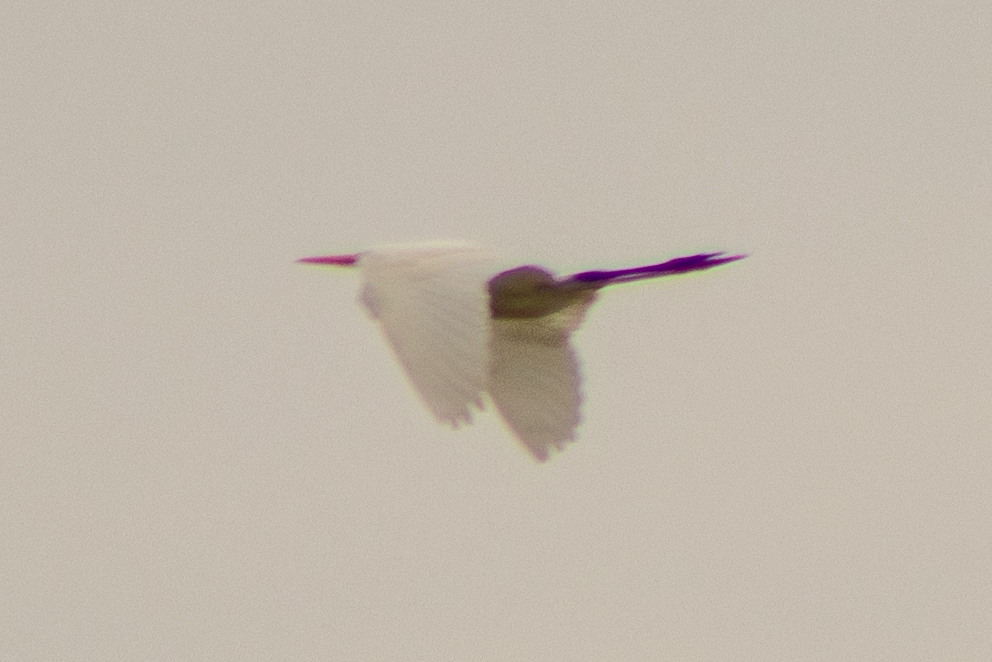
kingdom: Animalia
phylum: Chordata
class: Aves
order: Pelecaniformes
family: Ardeidae
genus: Ardea
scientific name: Ardea alba
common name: Great egret
